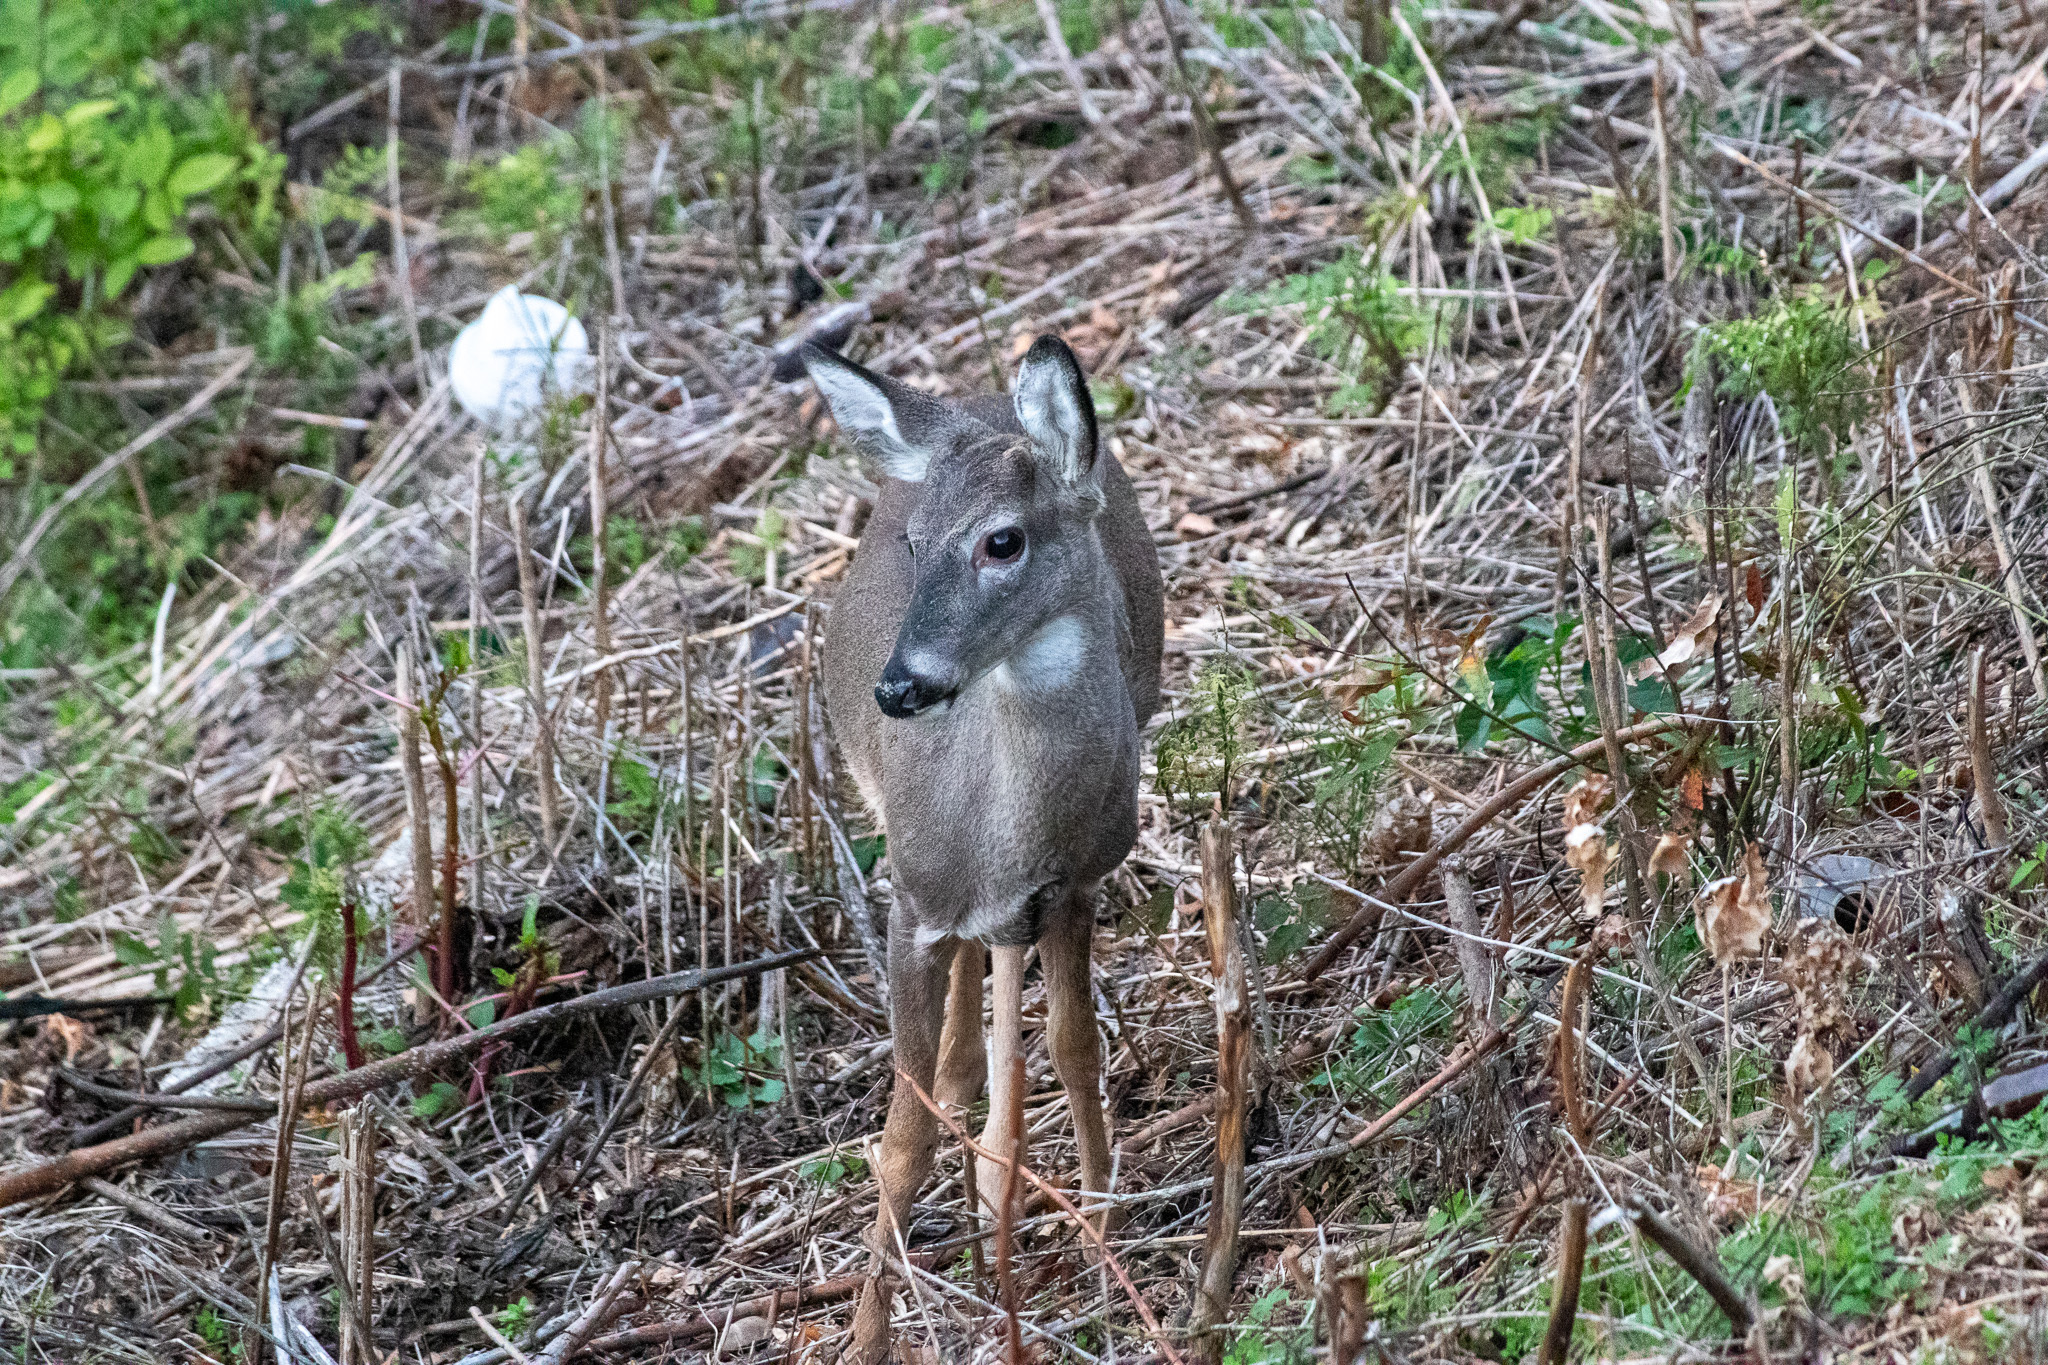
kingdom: Animalia
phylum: Chordata
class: Mammalia
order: Artiodactyla
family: Cervidae
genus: Odocoileus
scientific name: Odocoileus virginianus
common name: White-tailed deer
